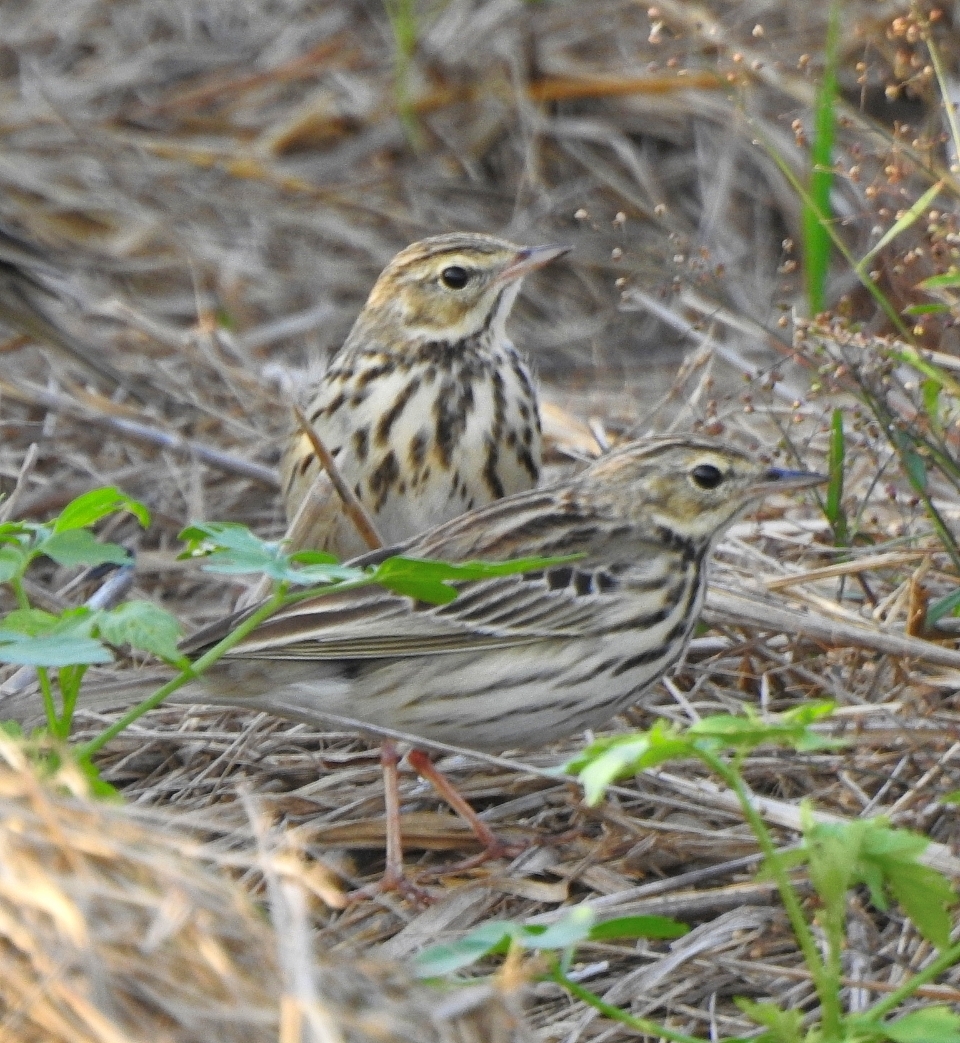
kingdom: Animalia
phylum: Chordata
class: Aves
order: Passeriformes
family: Motacillidae
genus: Anthus
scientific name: Anthus hodgsoni
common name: Olive-backed pipit
